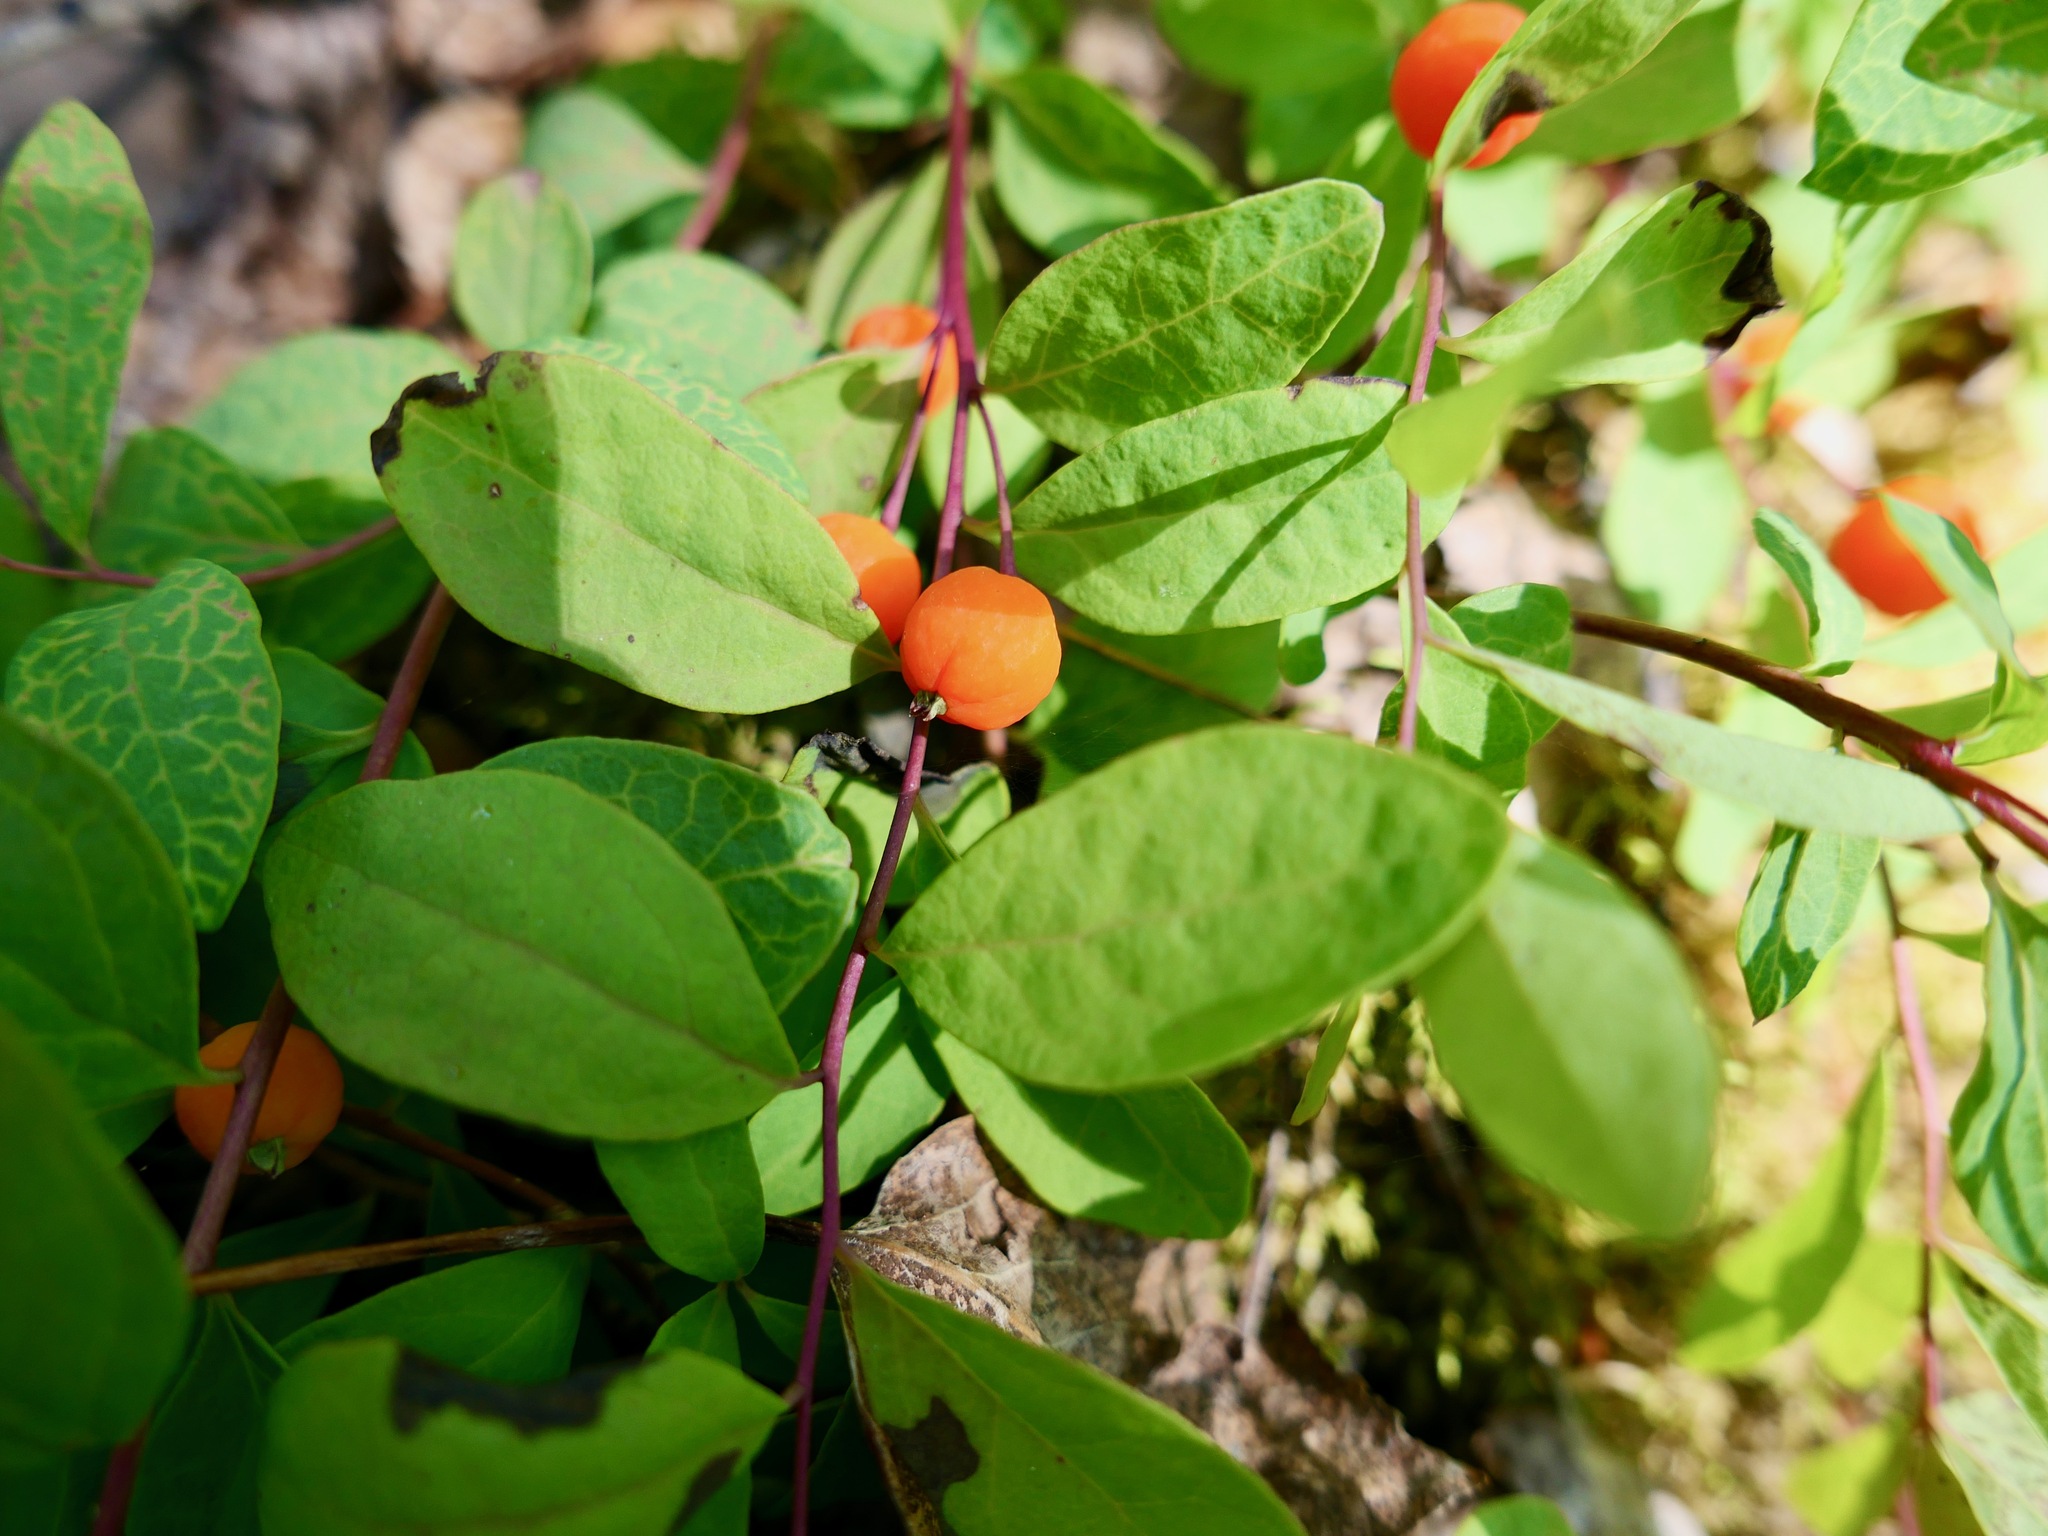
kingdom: Plantae
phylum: Tracheophyta
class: Magnoliopsida
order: Santalales
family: Comandraceae
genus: Geocaulon
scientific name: Geocaulon lividum
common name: Earthberry
